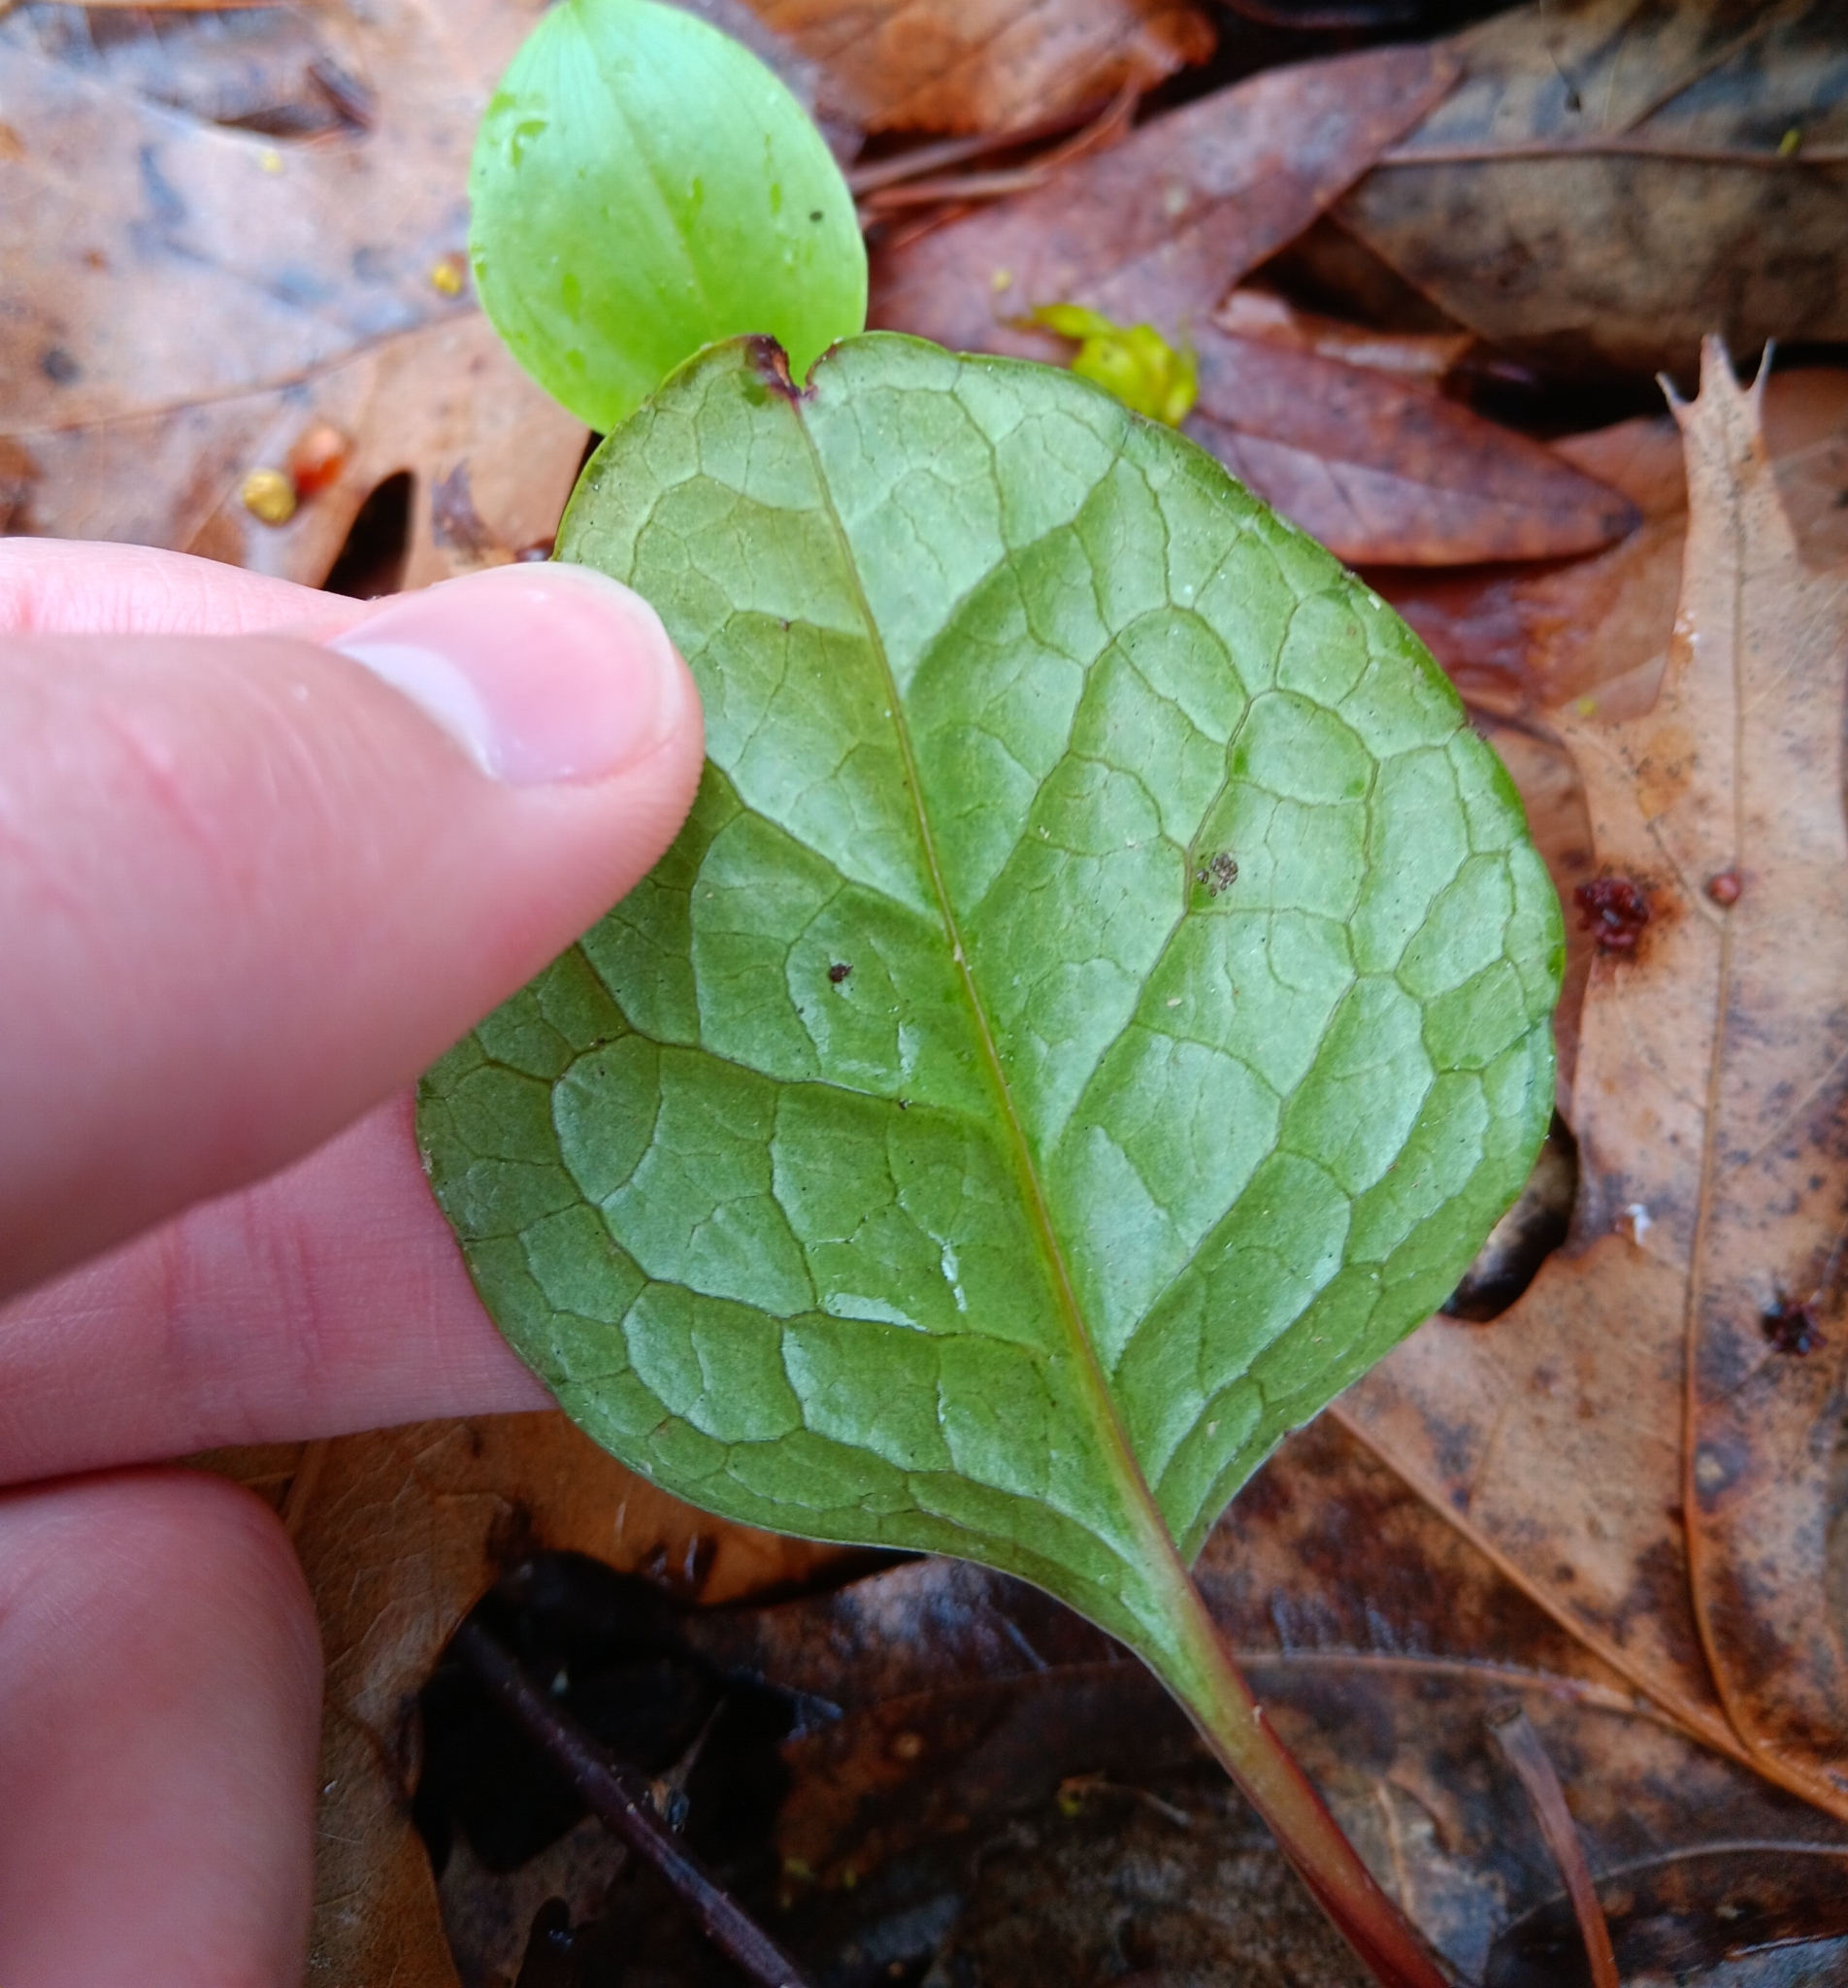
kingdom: Plantae
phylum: Tracheophyta
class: Magnoliopsida
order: Ericales
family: Ericaceae
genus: Pyrola
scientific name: Pyrola americana
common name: American wintergreen
